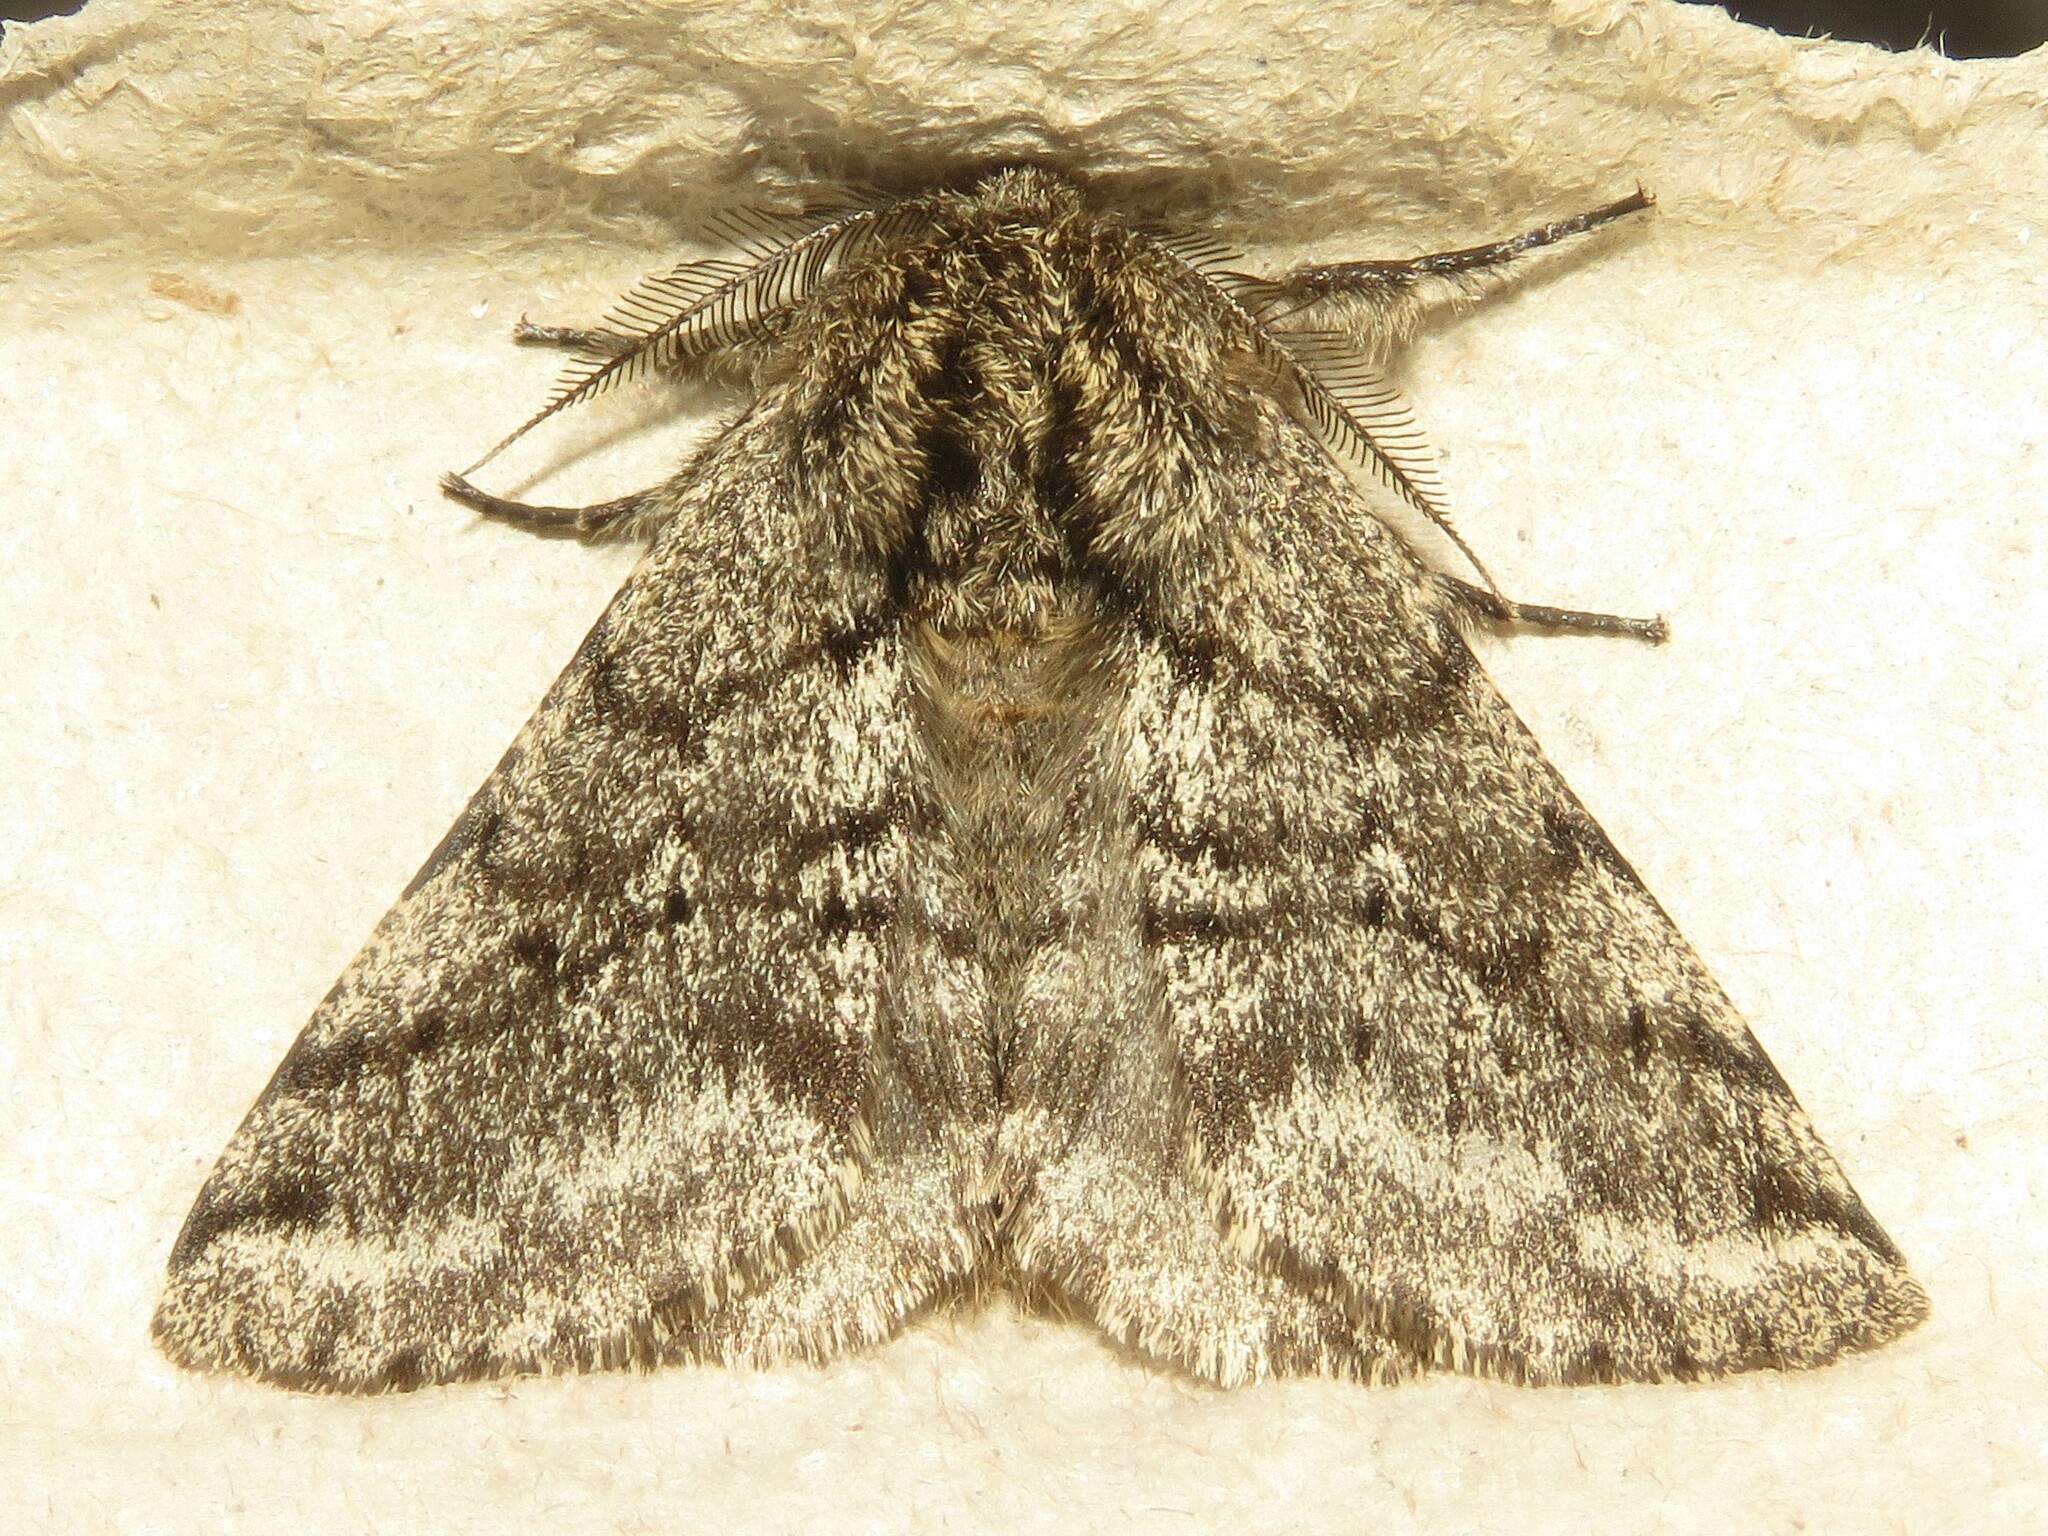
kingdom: Animalia
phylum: Arthropoda
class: Insecta
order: Lepidoptera
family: Geometridae
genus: Lycia
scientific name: Lycia ursaria
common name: Stout spanworm
